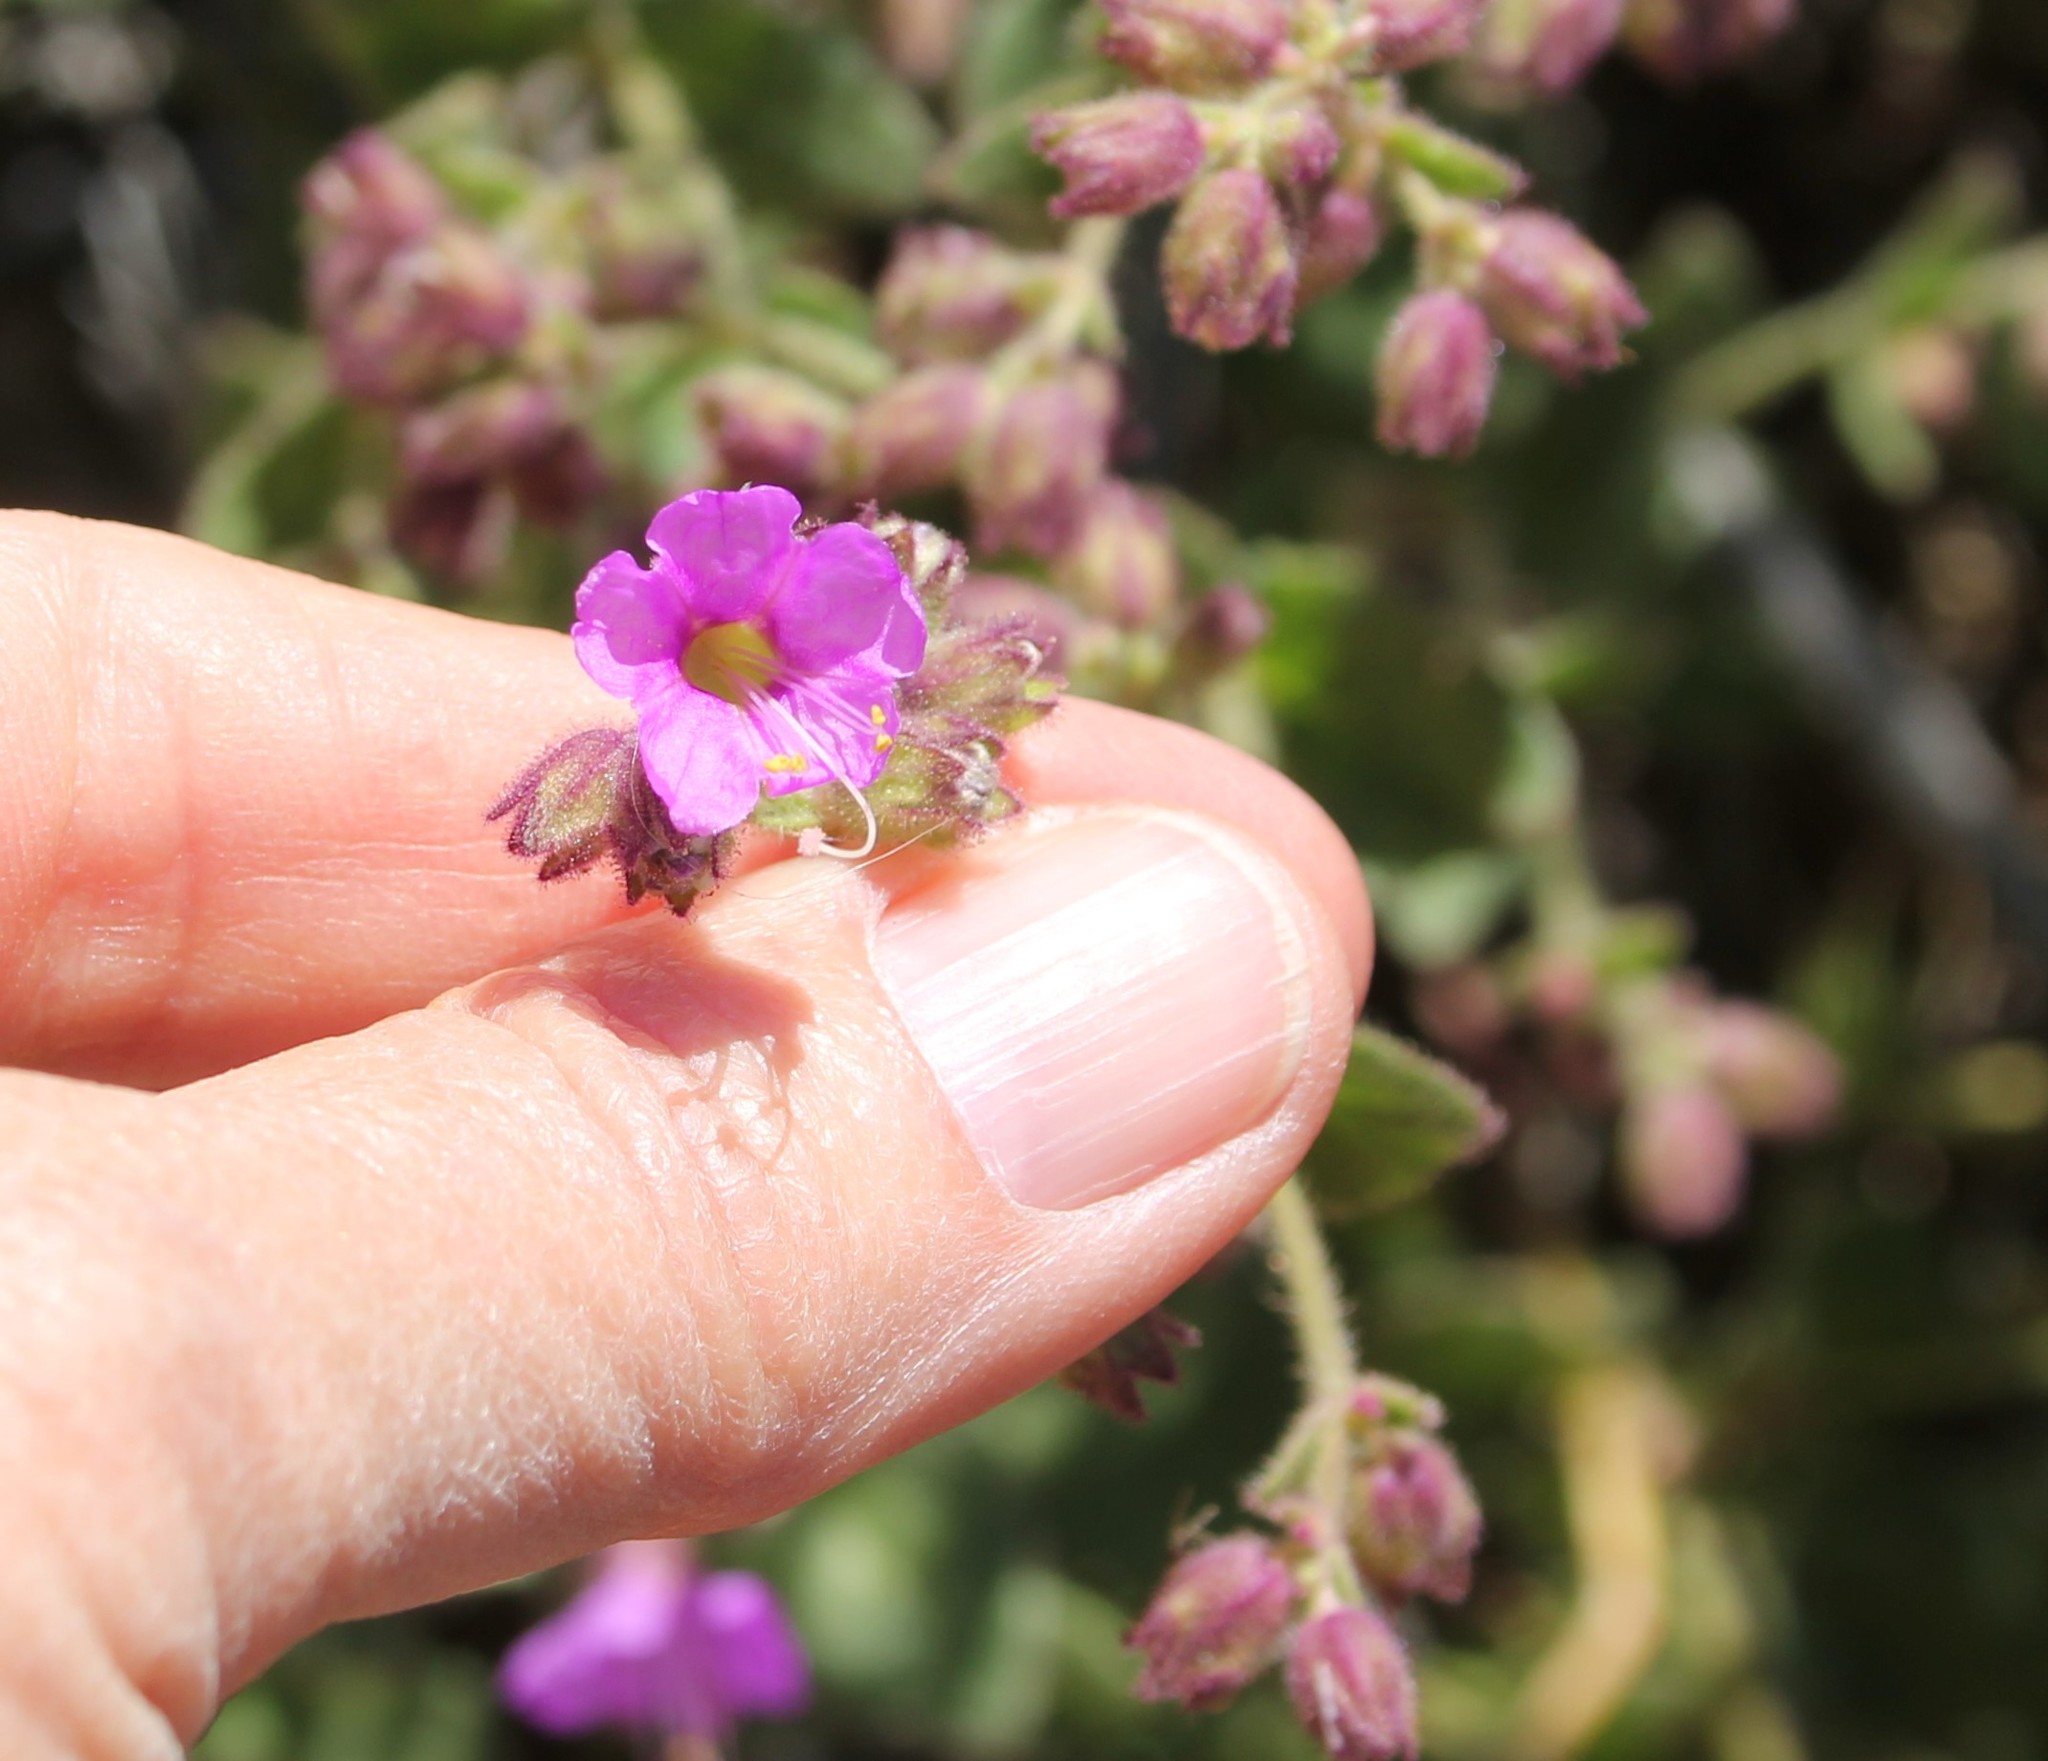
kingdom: Plantae
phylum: Tracheophyta
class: Magnoliopsida
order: Caryophyllales
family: Nyctaginaceae
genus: Mirabilis
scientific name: Mirabilis laevis
